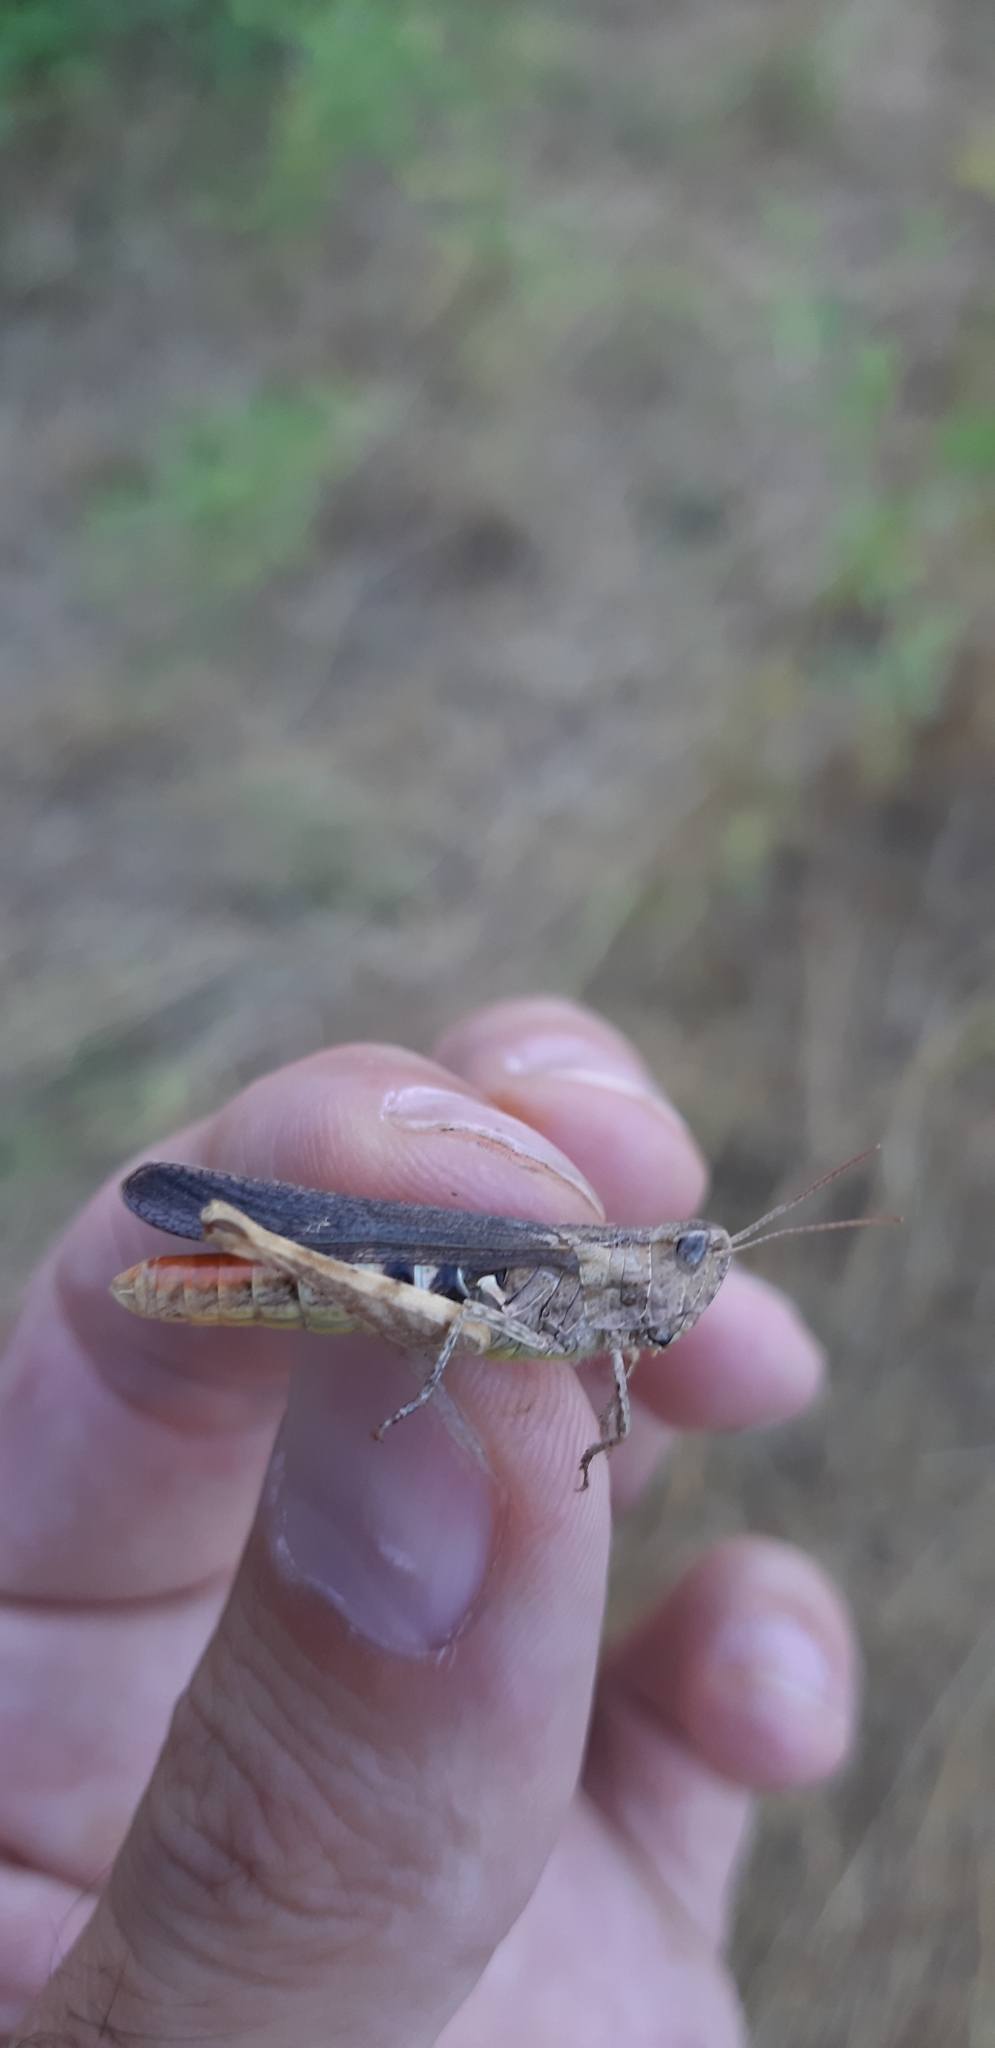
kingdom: Animalia
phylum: Arthropoda
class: Insecta
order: Orthoptera
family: Acrididae
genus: Chorthippus
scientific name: Chorthippus brunneus
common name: Field grasshopper
